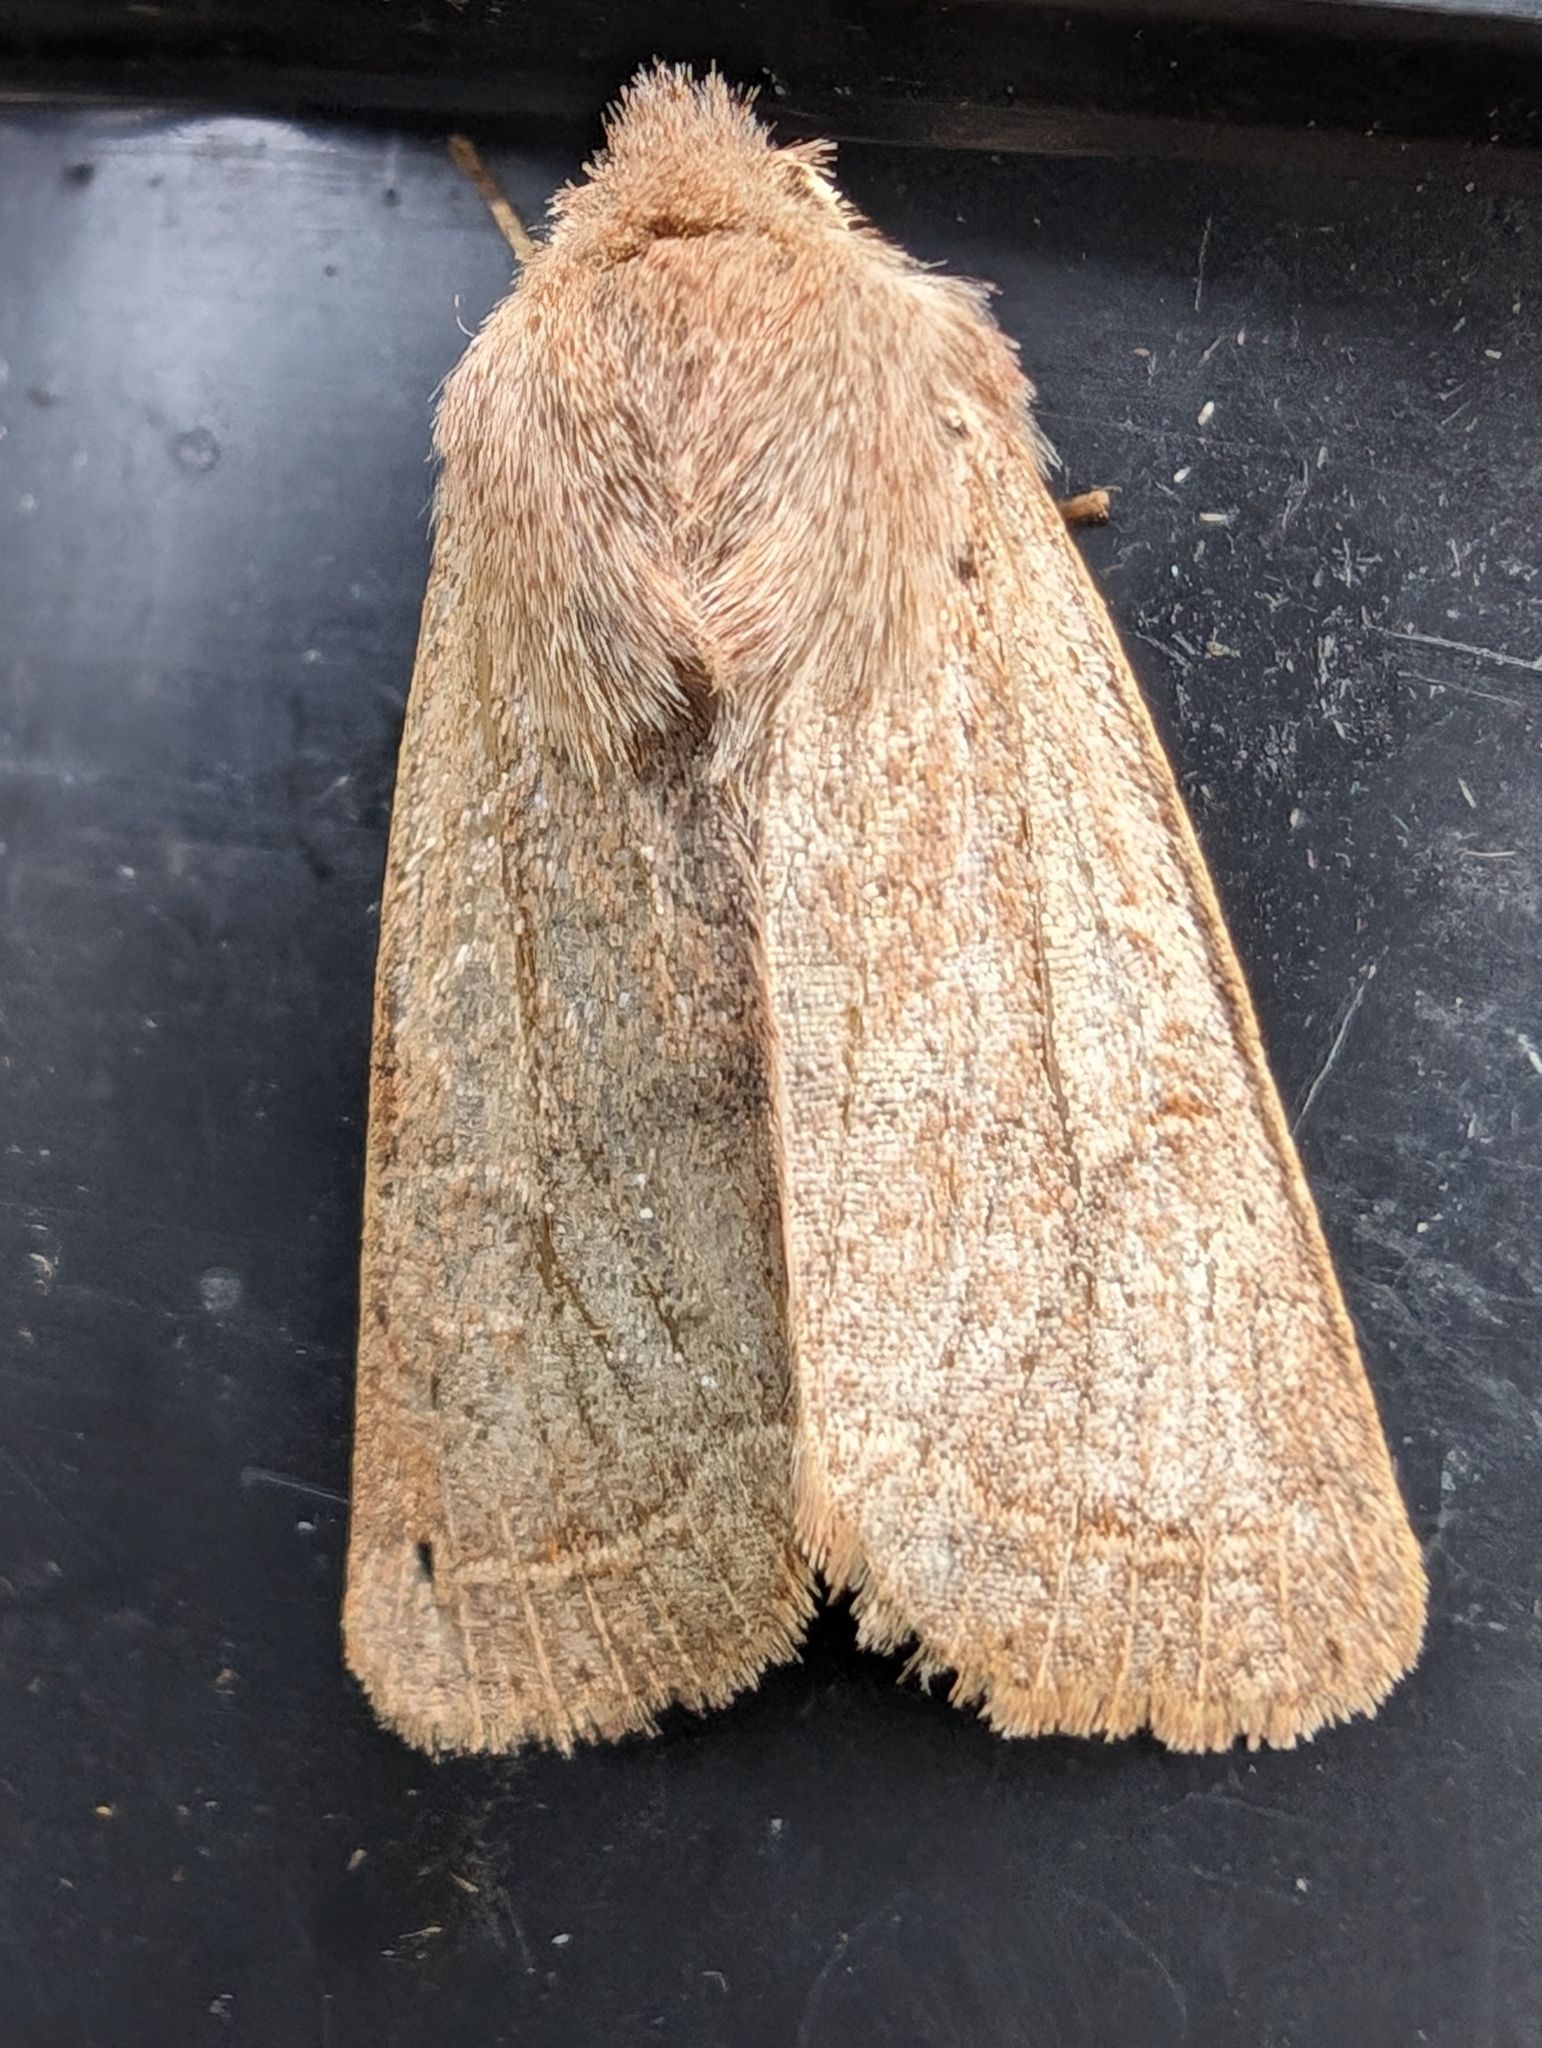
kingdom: Animalia
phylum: Arthropoda
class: Insecta
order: Lepidoptera
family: Noctuidae
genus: Orthosia
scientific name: Orthosia cerasi
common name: Common quaker
